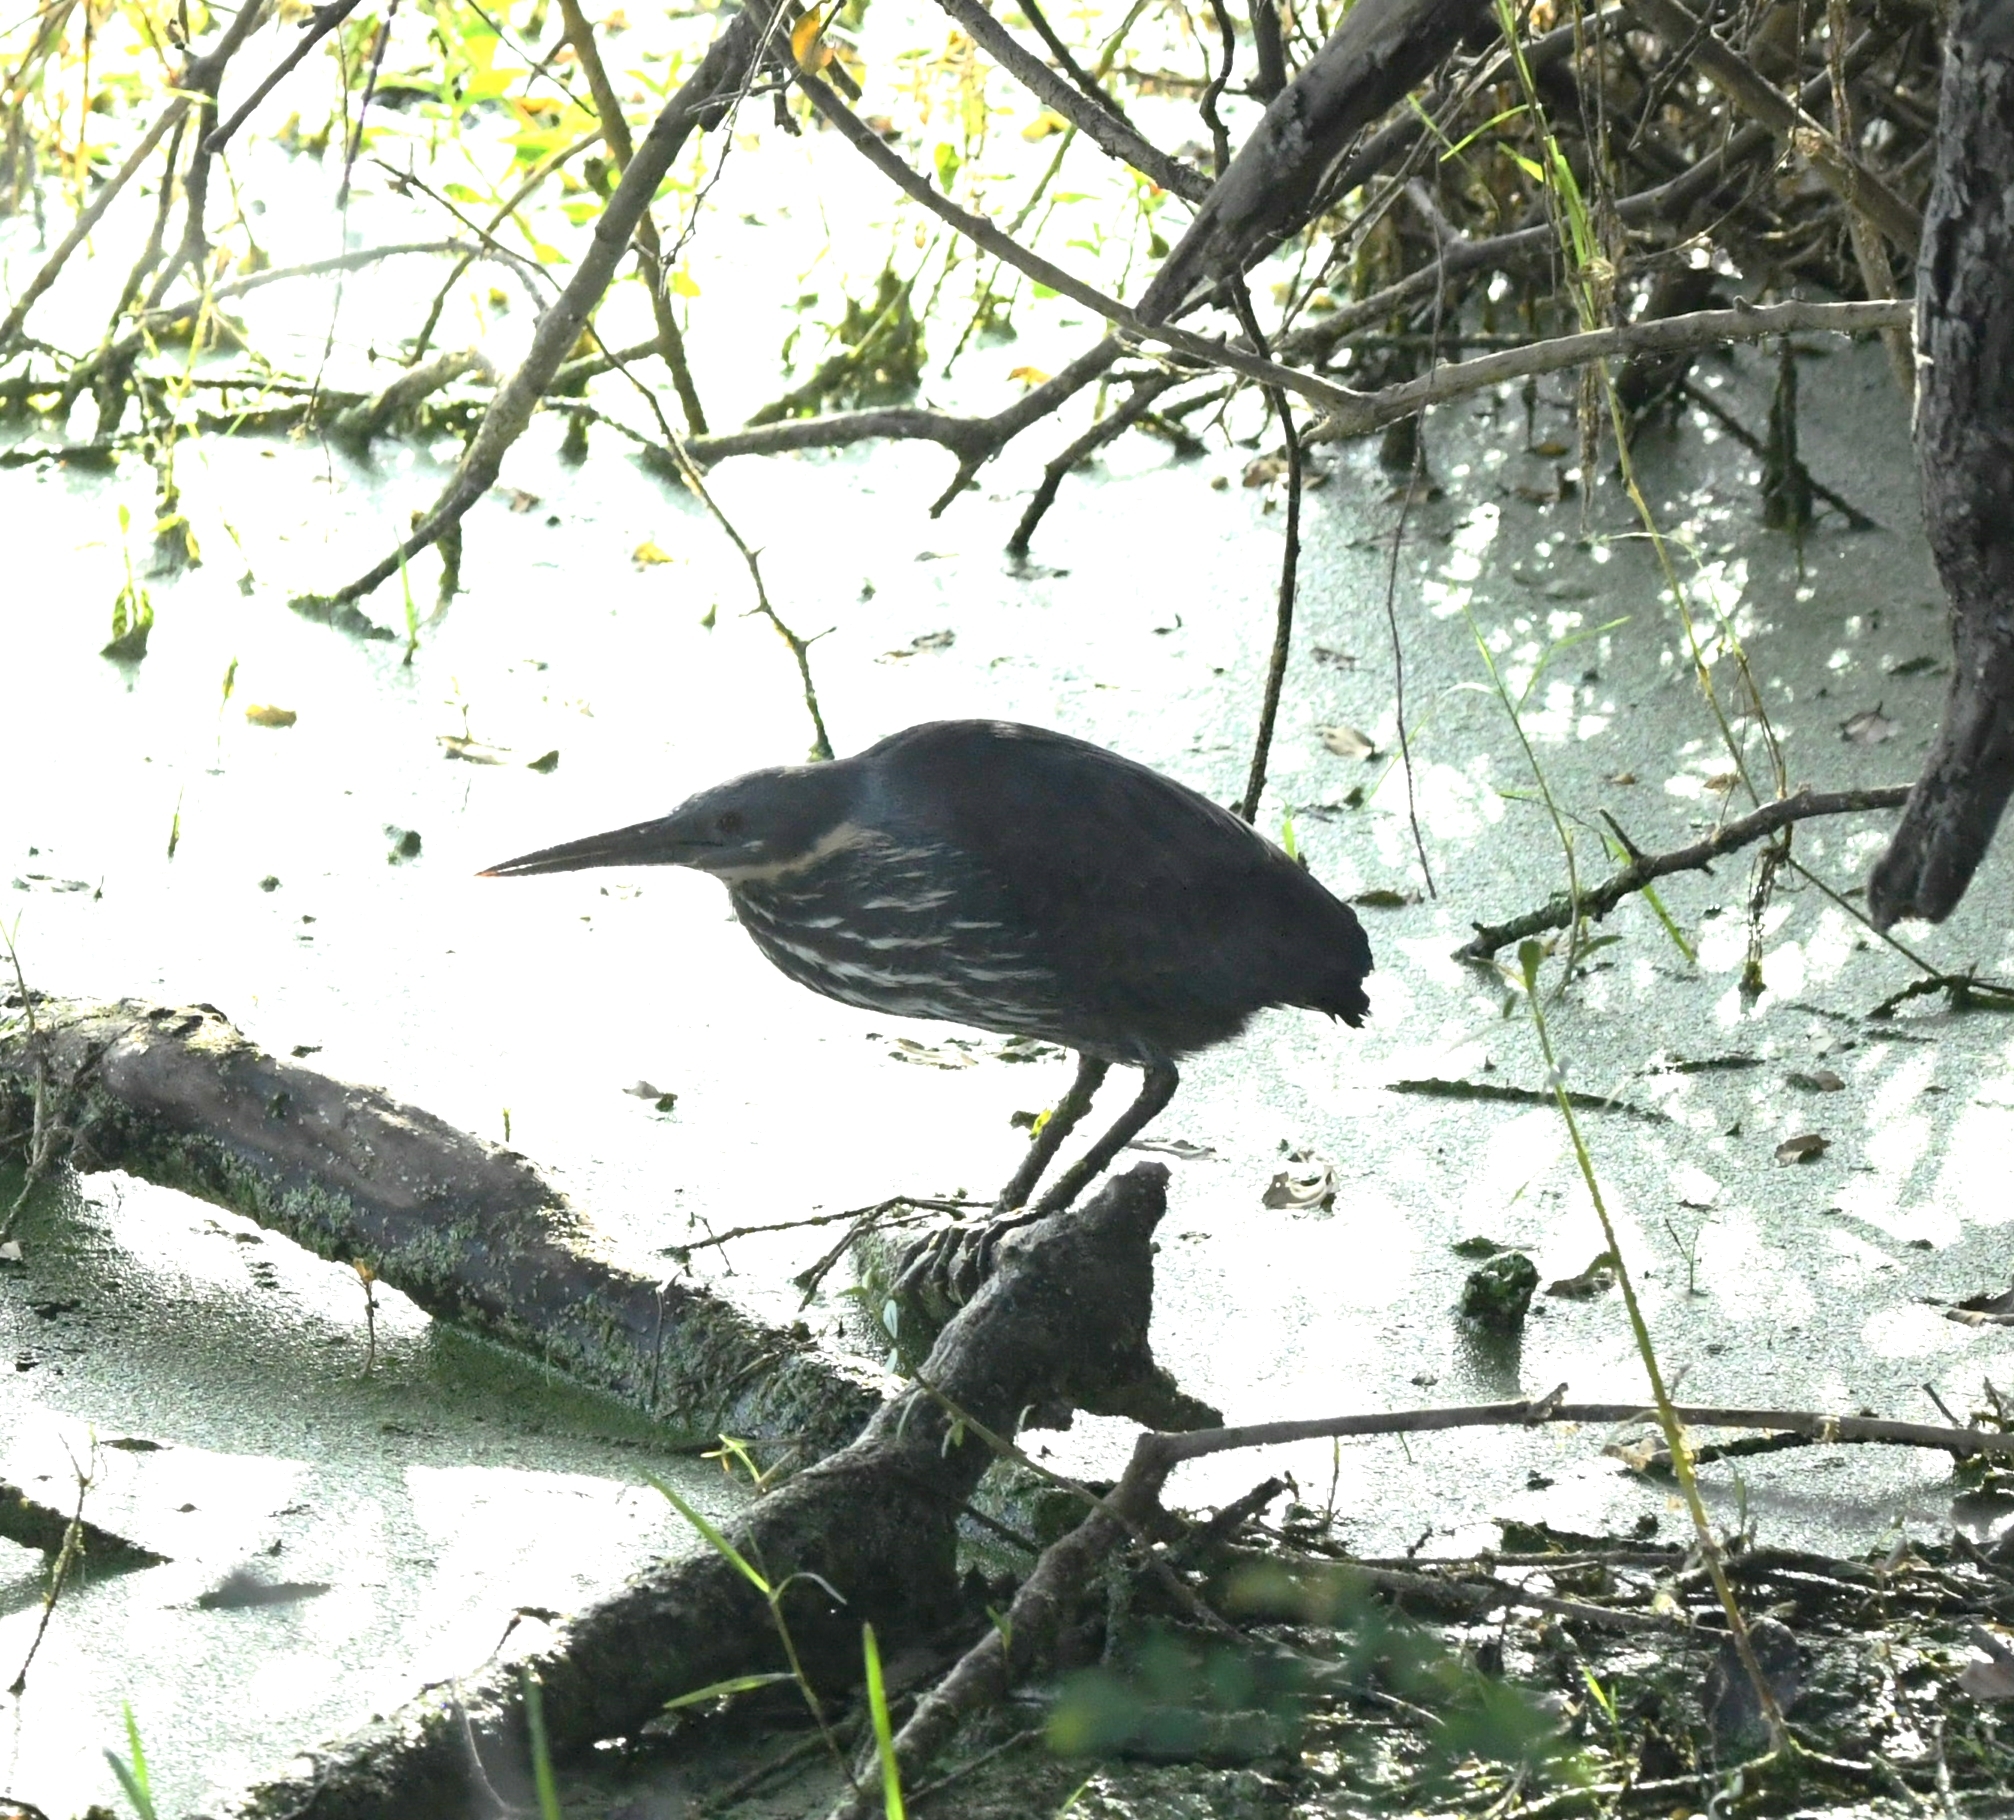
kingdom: Animalia
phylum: Chordata
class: Aves
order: Pelecaniformes
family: Ardeidae
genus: Dupetor
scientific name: Dupetor flavicollis
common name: Black bittern
